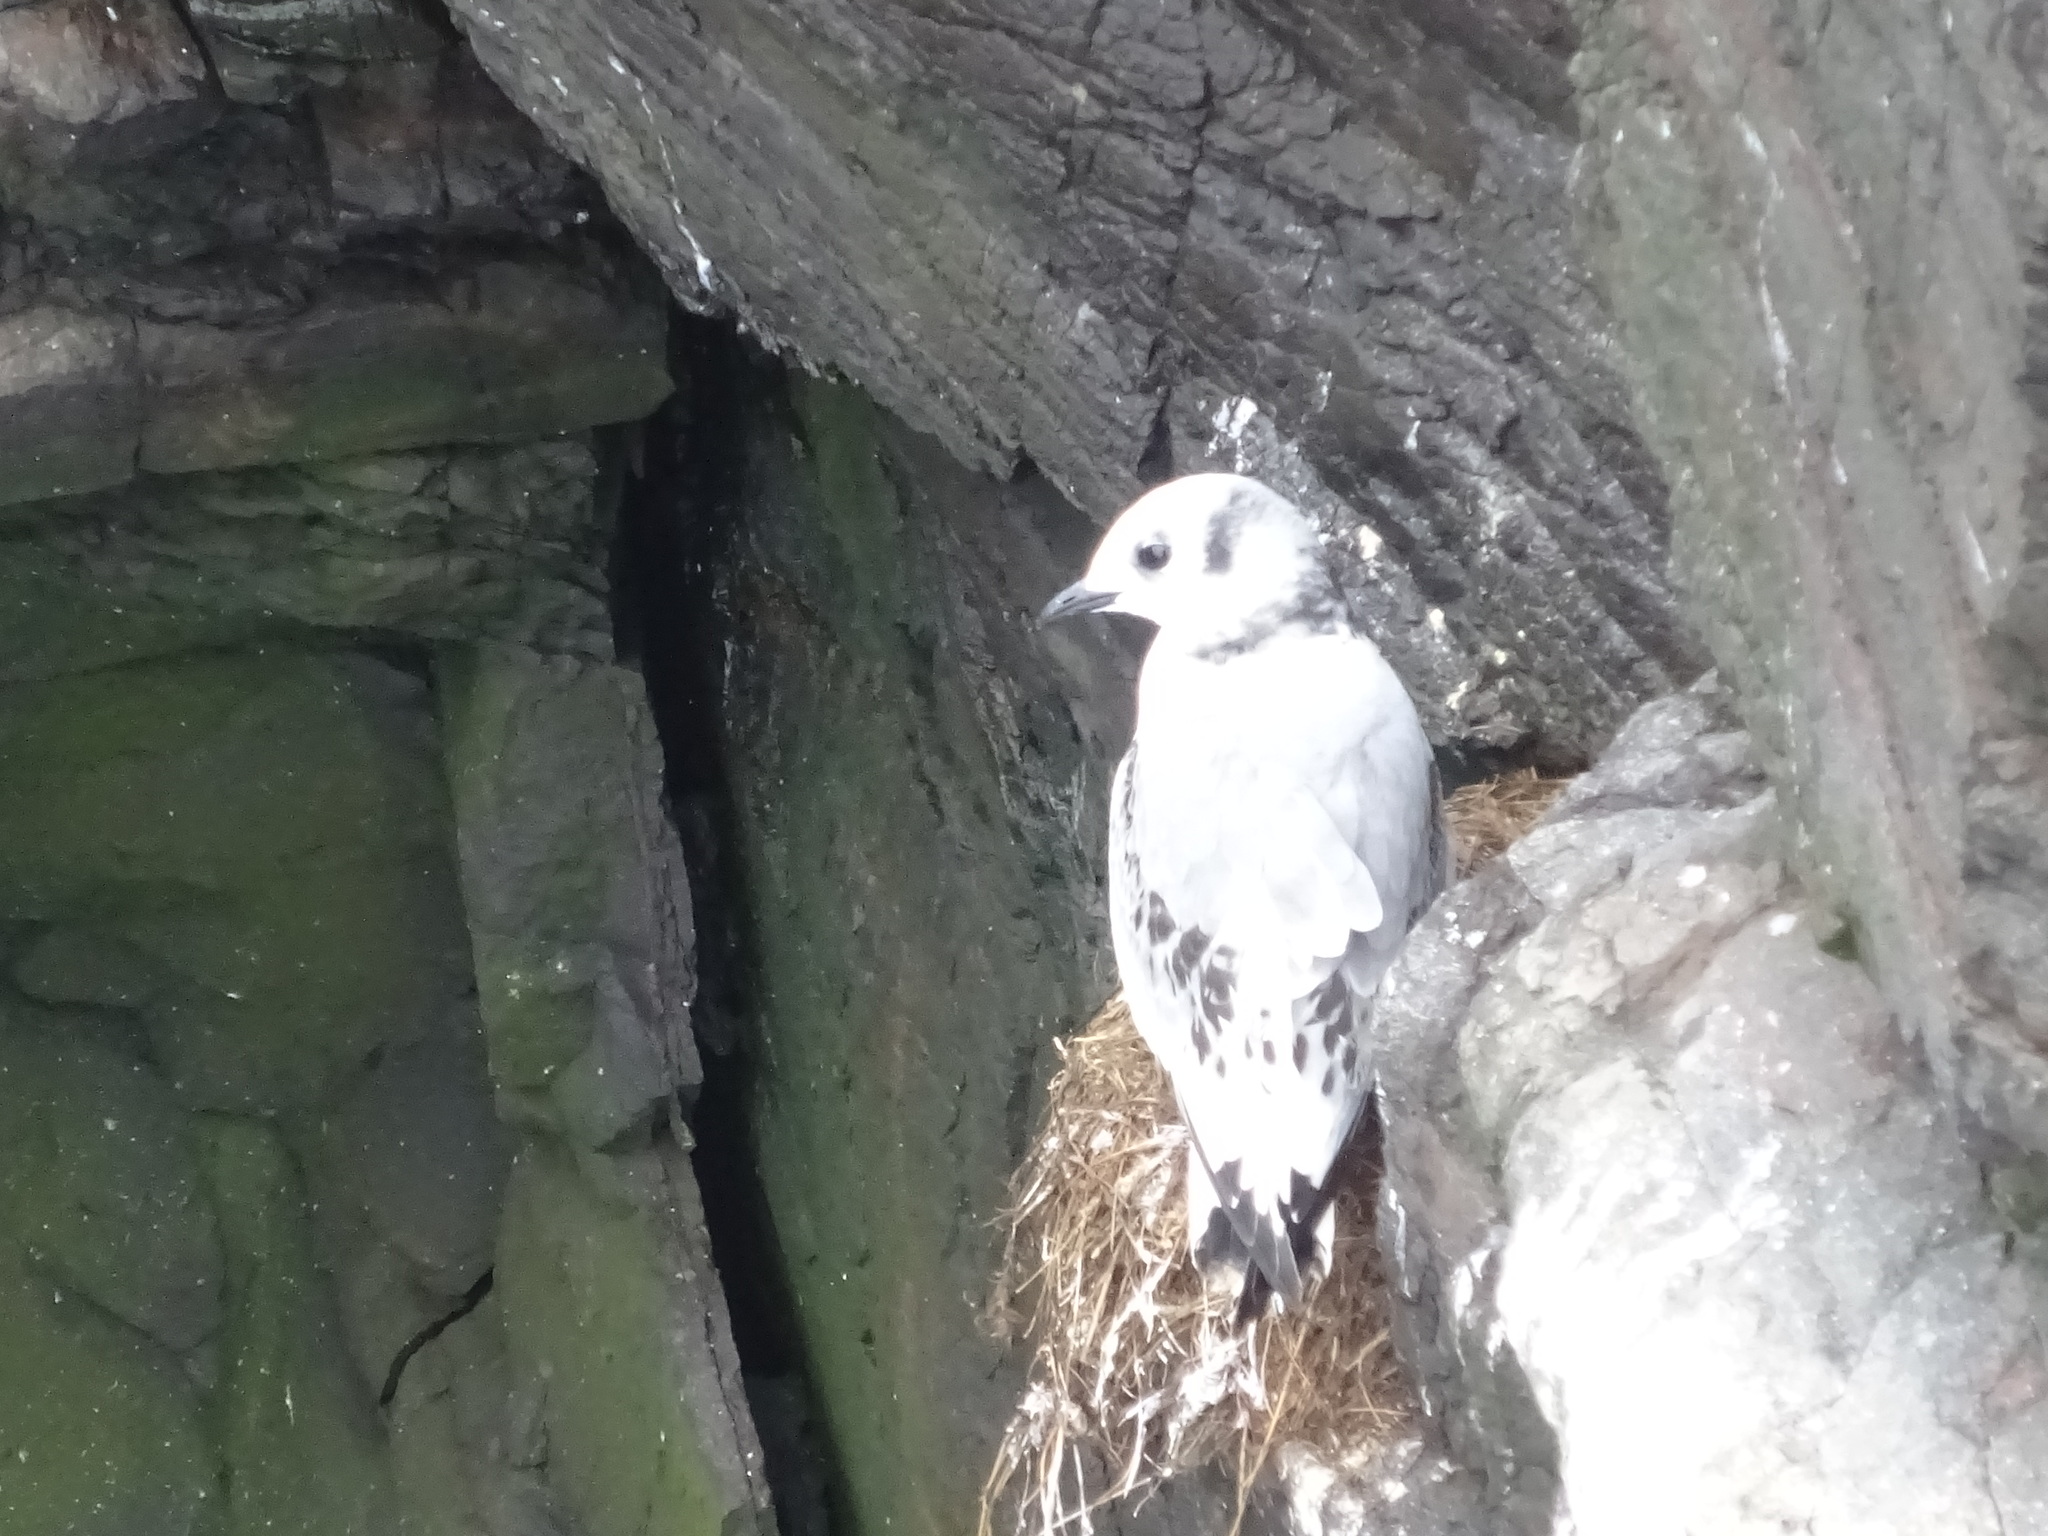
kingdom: Animalia
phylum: Chordata
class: Aves
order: Charadriiformes
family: Laridae
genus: Rissa
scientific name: Rissa tridactyla
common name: Black-legged kittiwake
